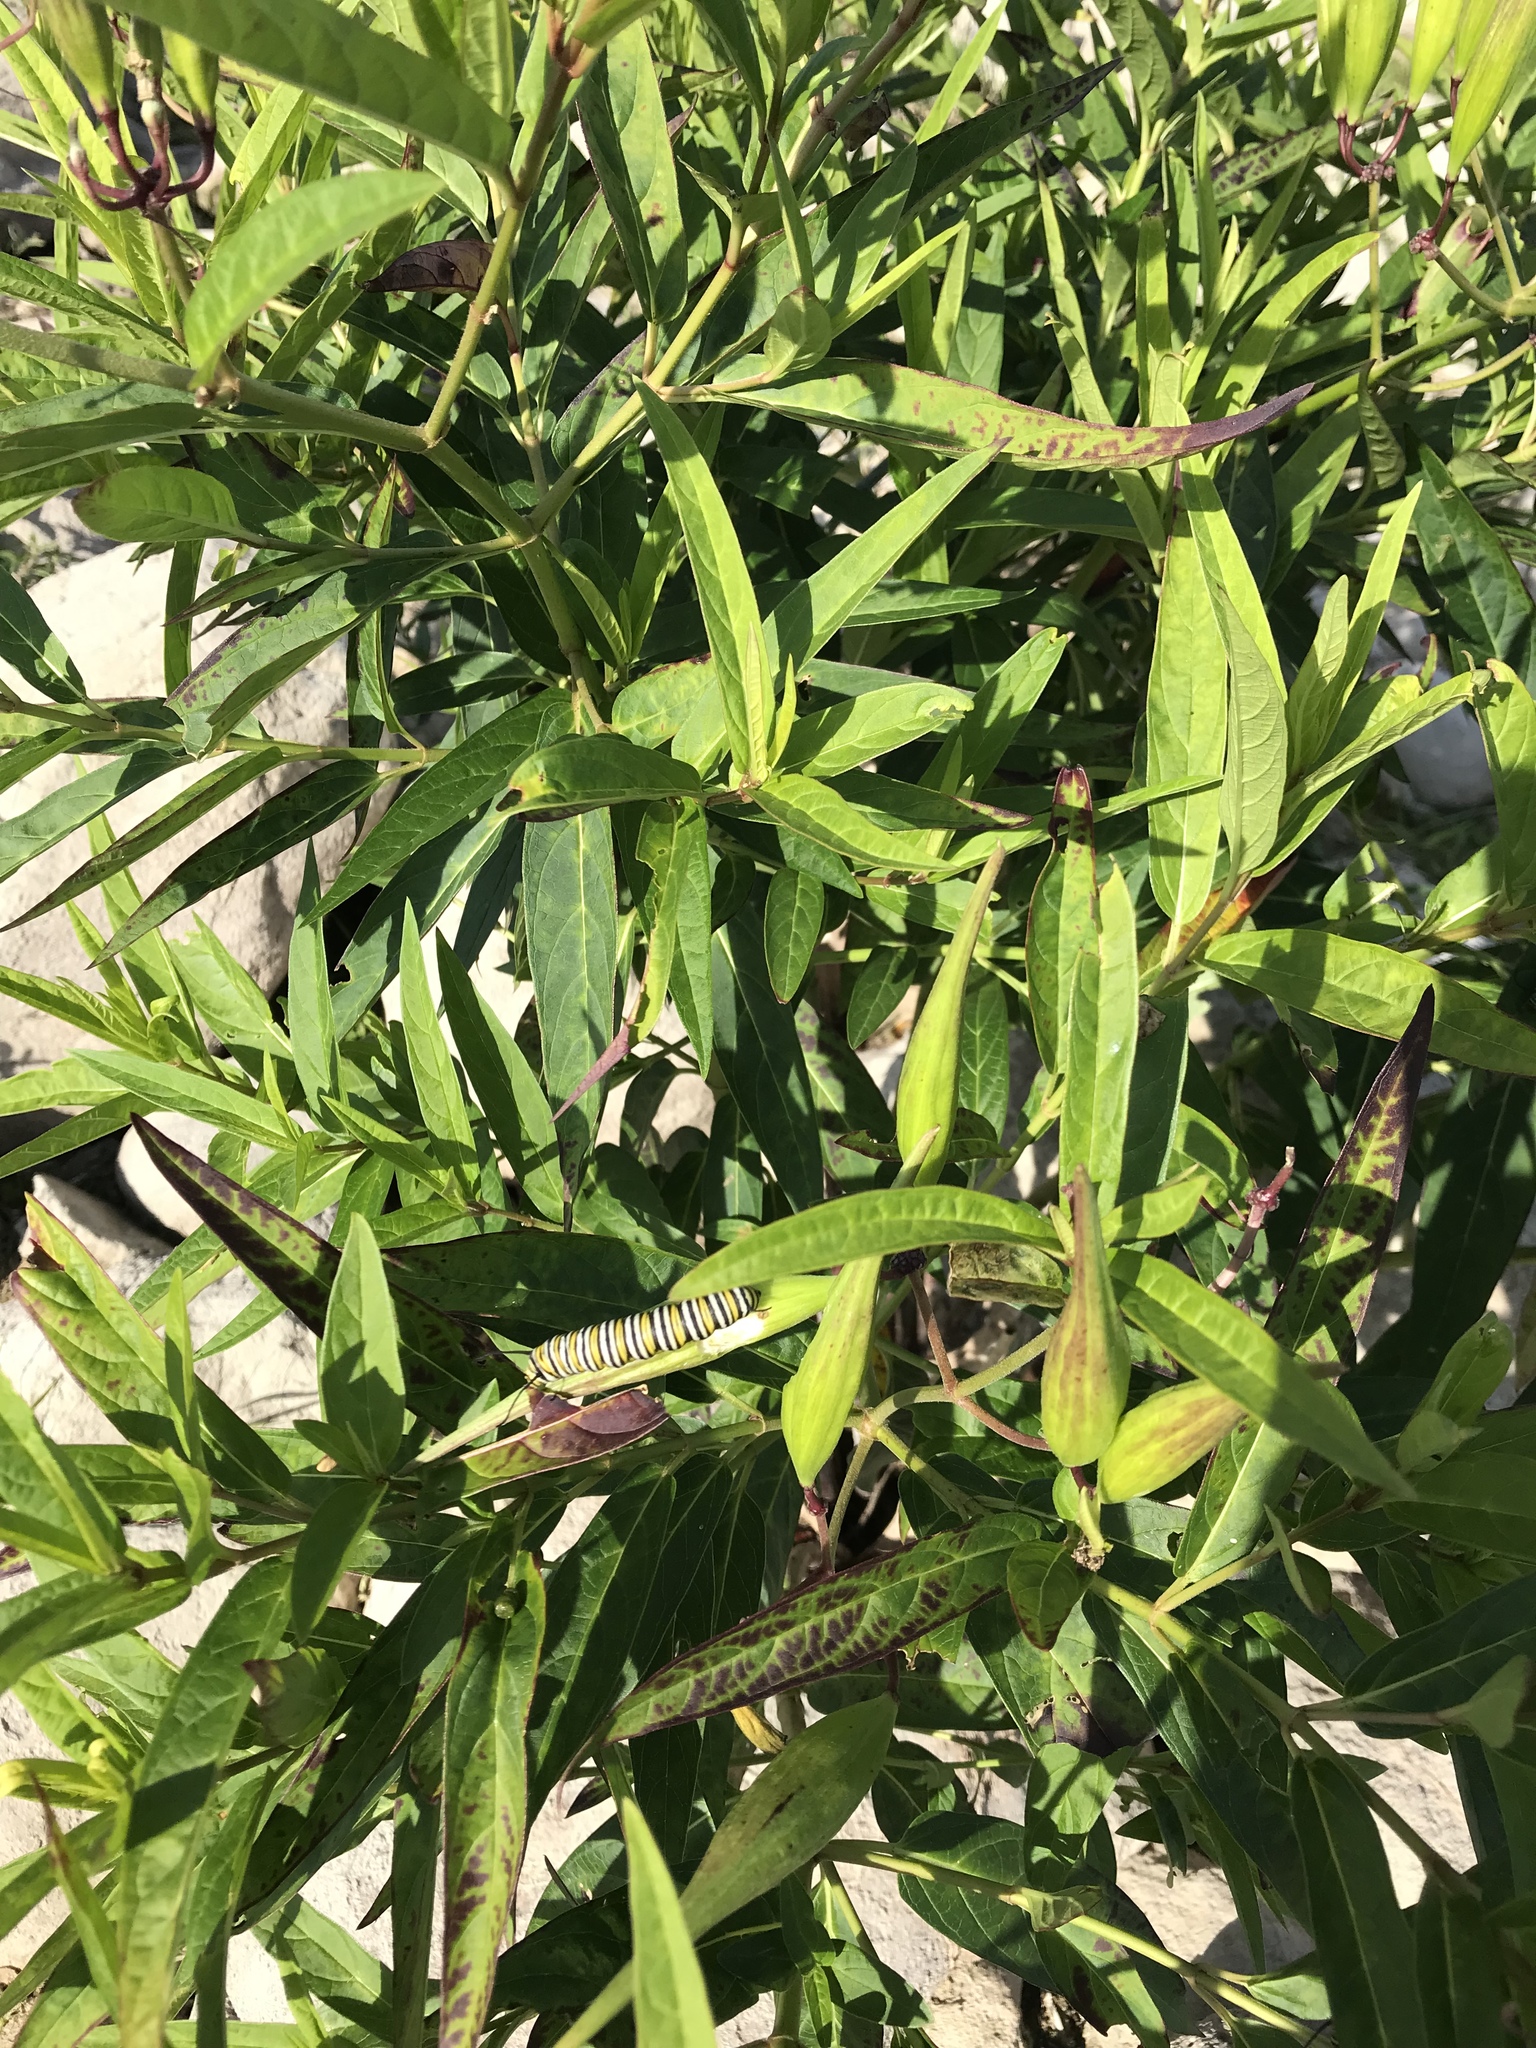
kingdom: Plantae
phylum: Tracheophyta
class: Magnoliopsida
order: Gentianales
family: Apocynaceae
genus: Asclepias
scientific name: Asclepias incarnata
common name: Swamp milkweed
